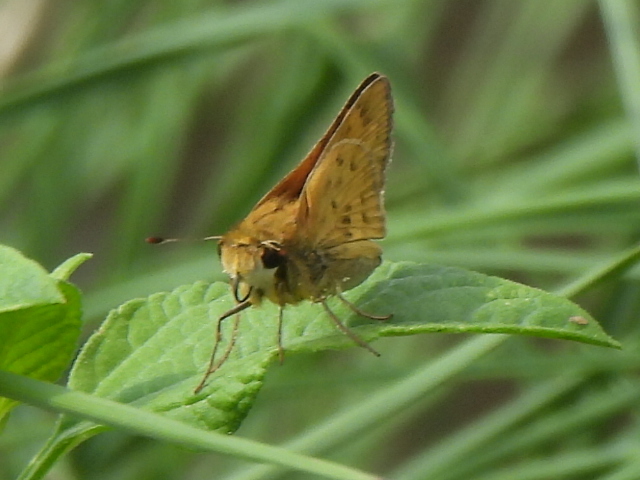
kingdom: Animalia
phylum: Arthropoda
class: Insecta
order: Lepidoptera
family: Hesperiidae
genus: Hylephila
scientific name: Hylephila phyleus
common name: Fiery skipper
